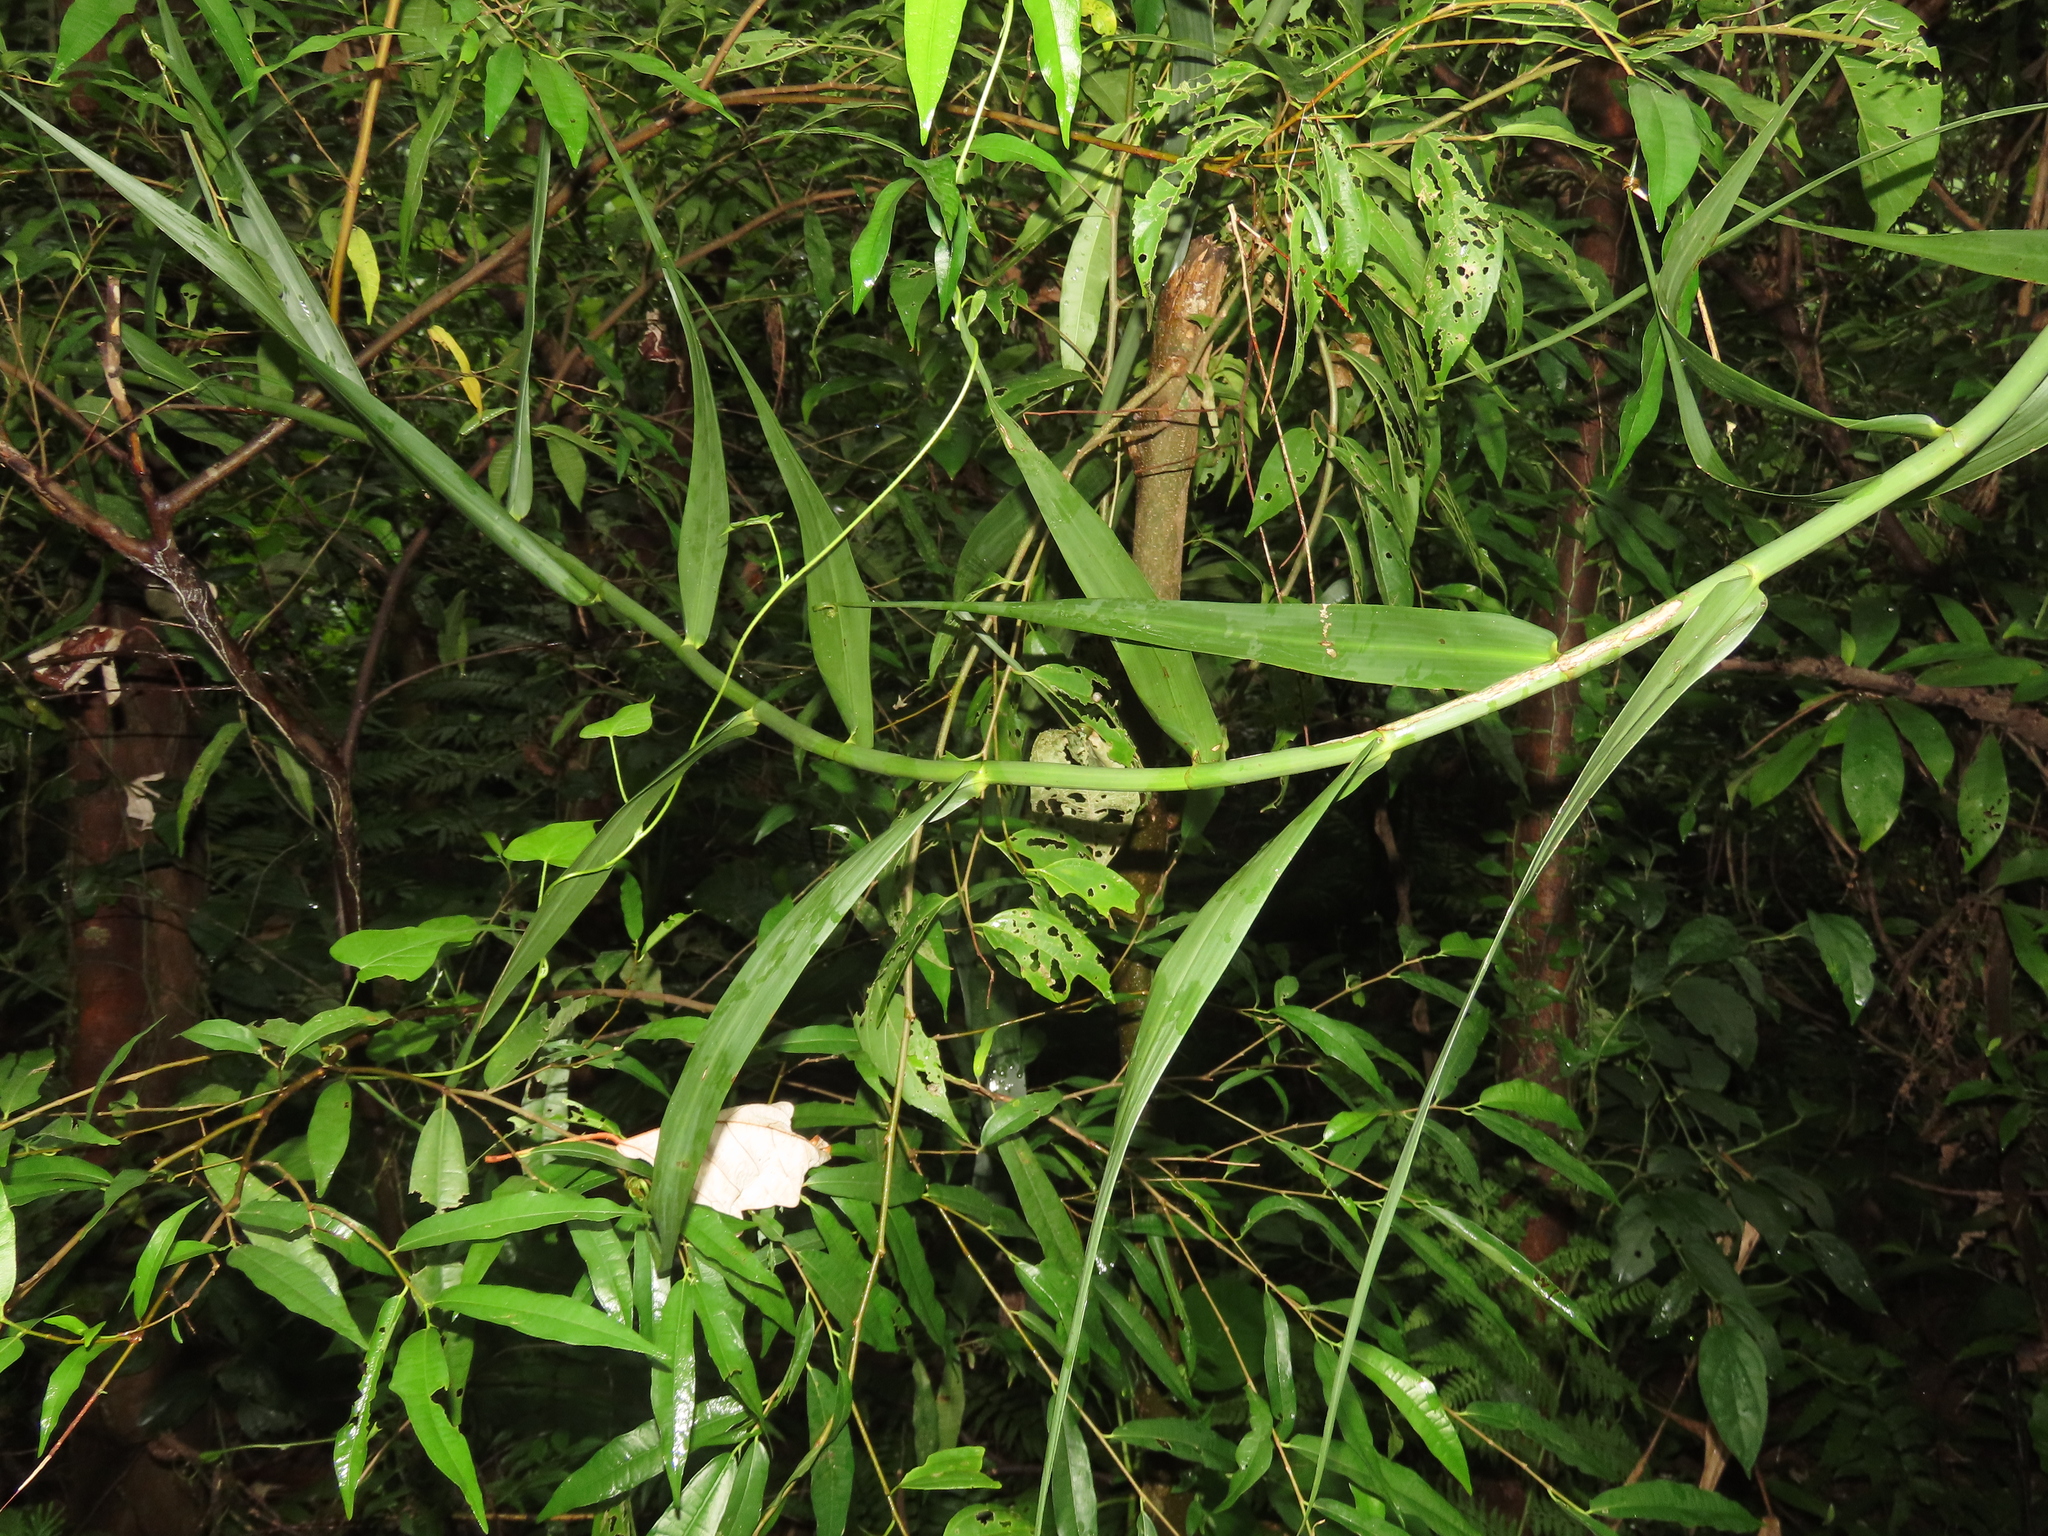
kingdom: Plantae
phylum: Tracheophyta
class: Liliopsida
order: Poales
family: Flagellariaceae
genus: Flagellaria
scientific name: Flagellaria indica
